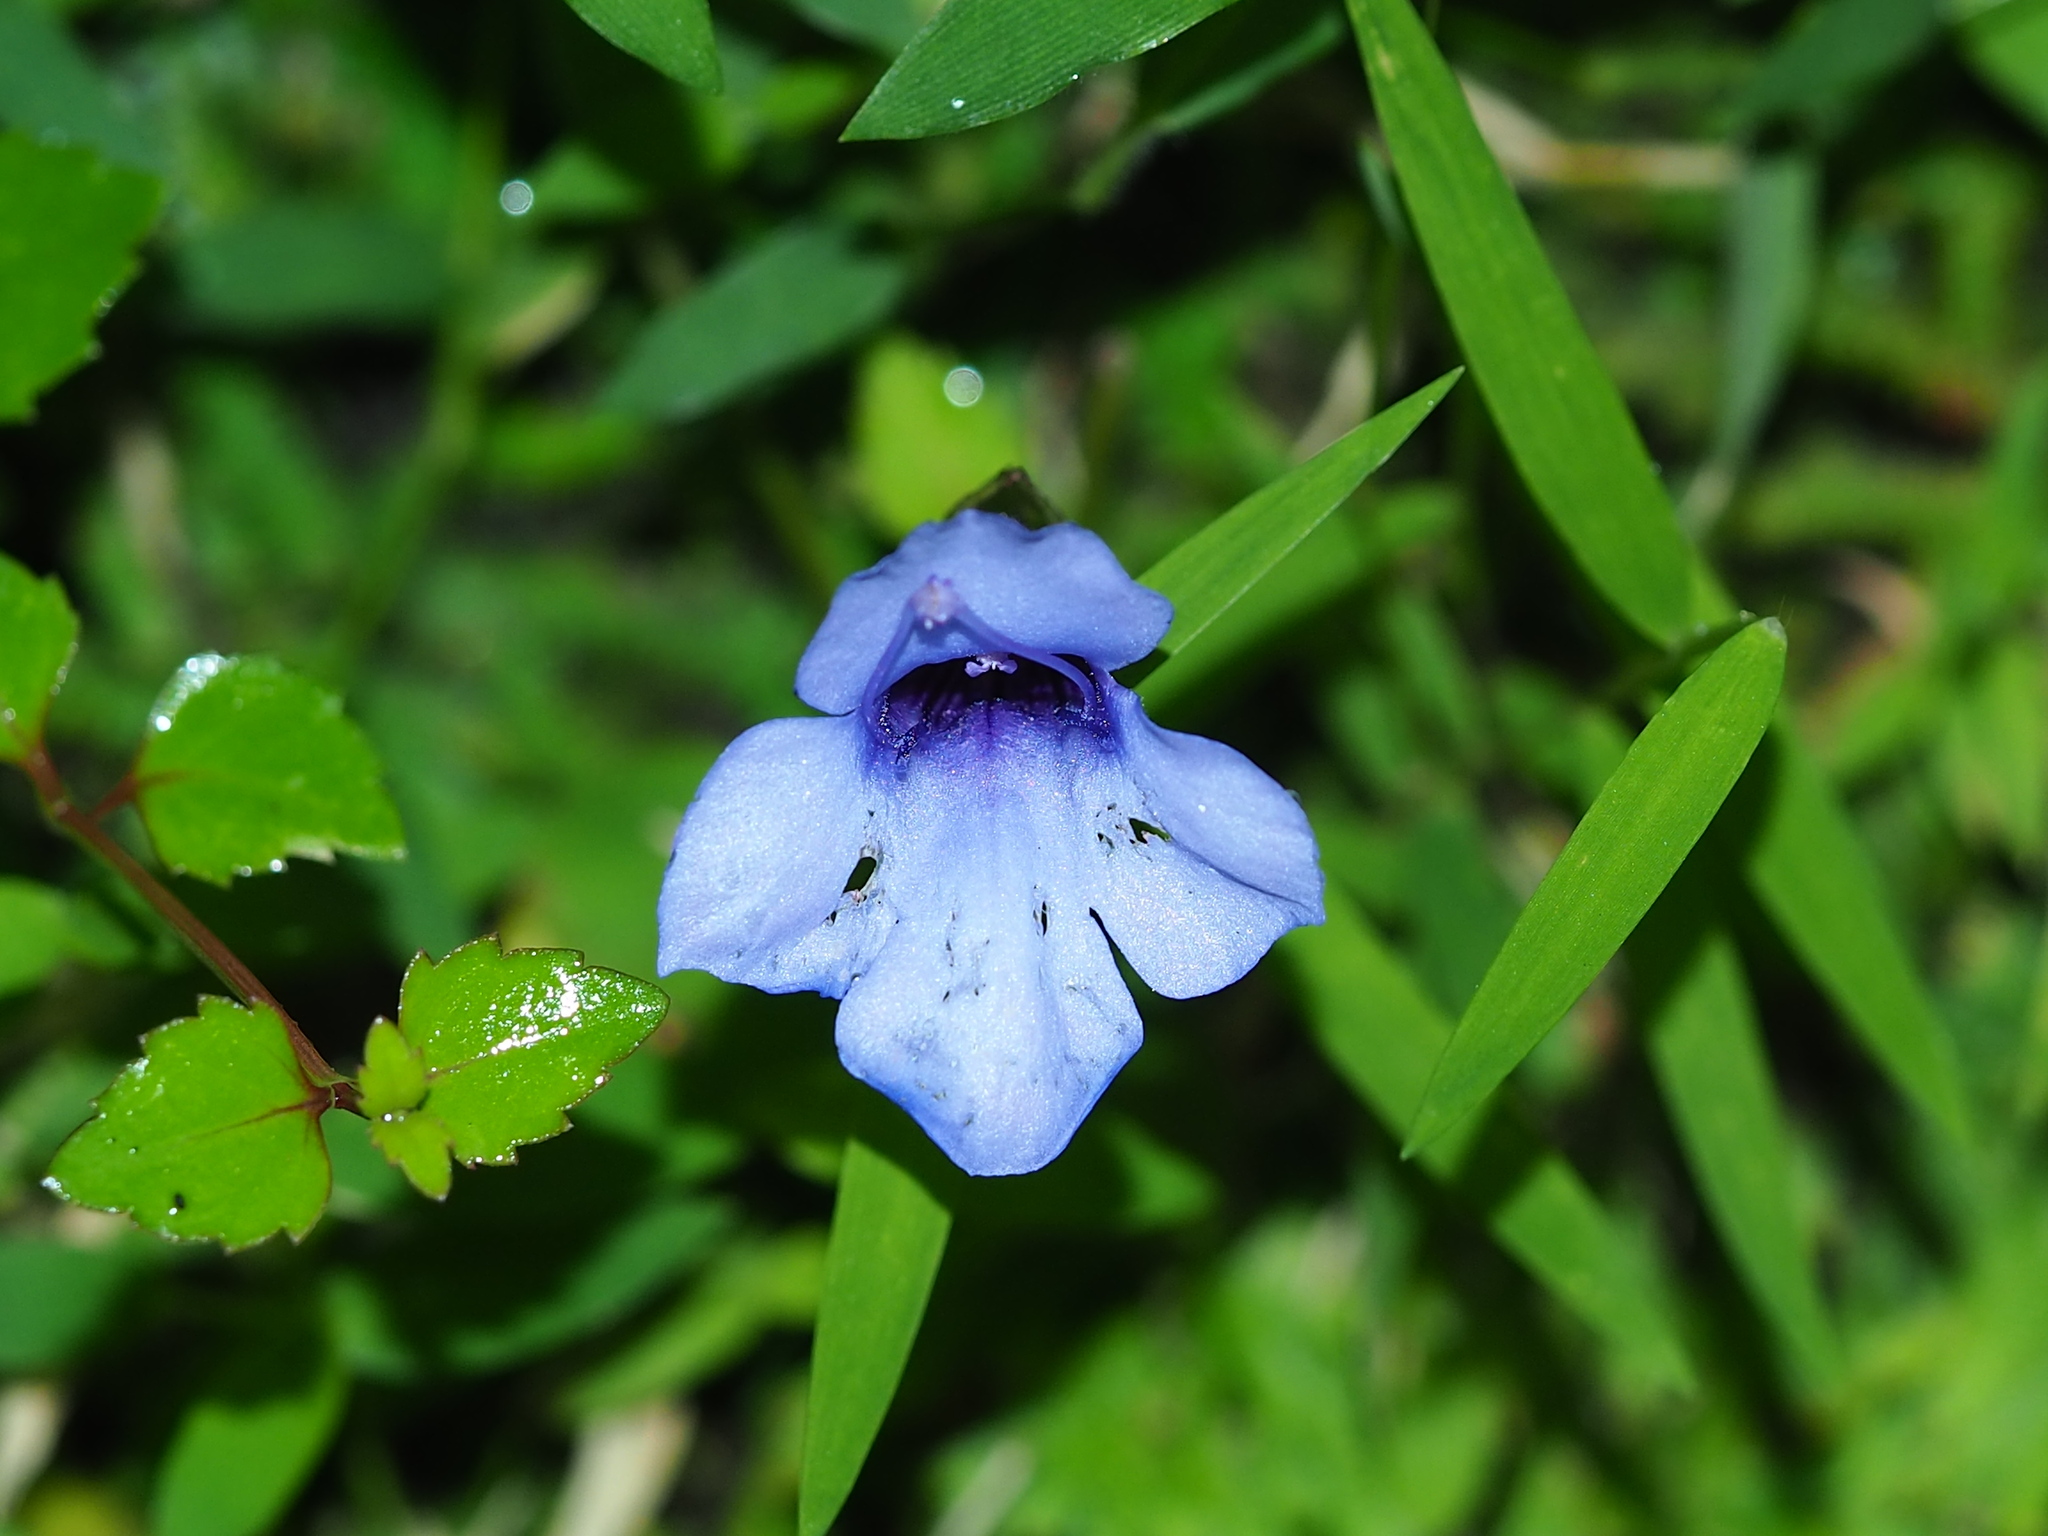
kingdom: Plantae
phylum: Tracheophyta
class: Magnoliopsida
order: Lamiales
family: Linderniaceae
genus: Torenia
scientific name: Torenia concolor
